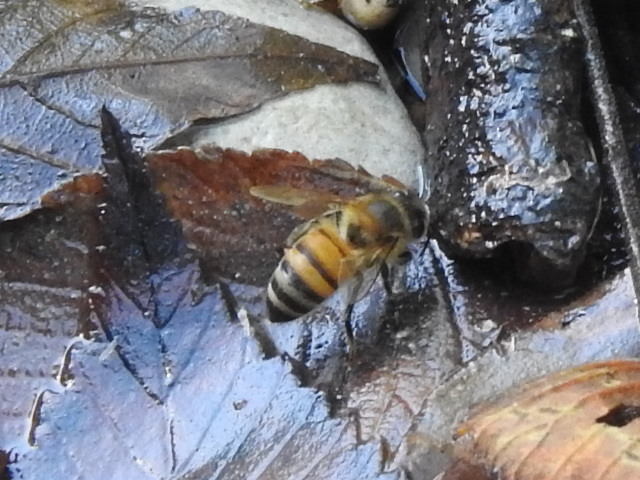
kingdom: Animalia
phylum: Arthropoda
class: Insecta
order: Hymenoptera
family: Apidae
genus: Apis
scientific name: Apis mellifera
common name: Honey bee
